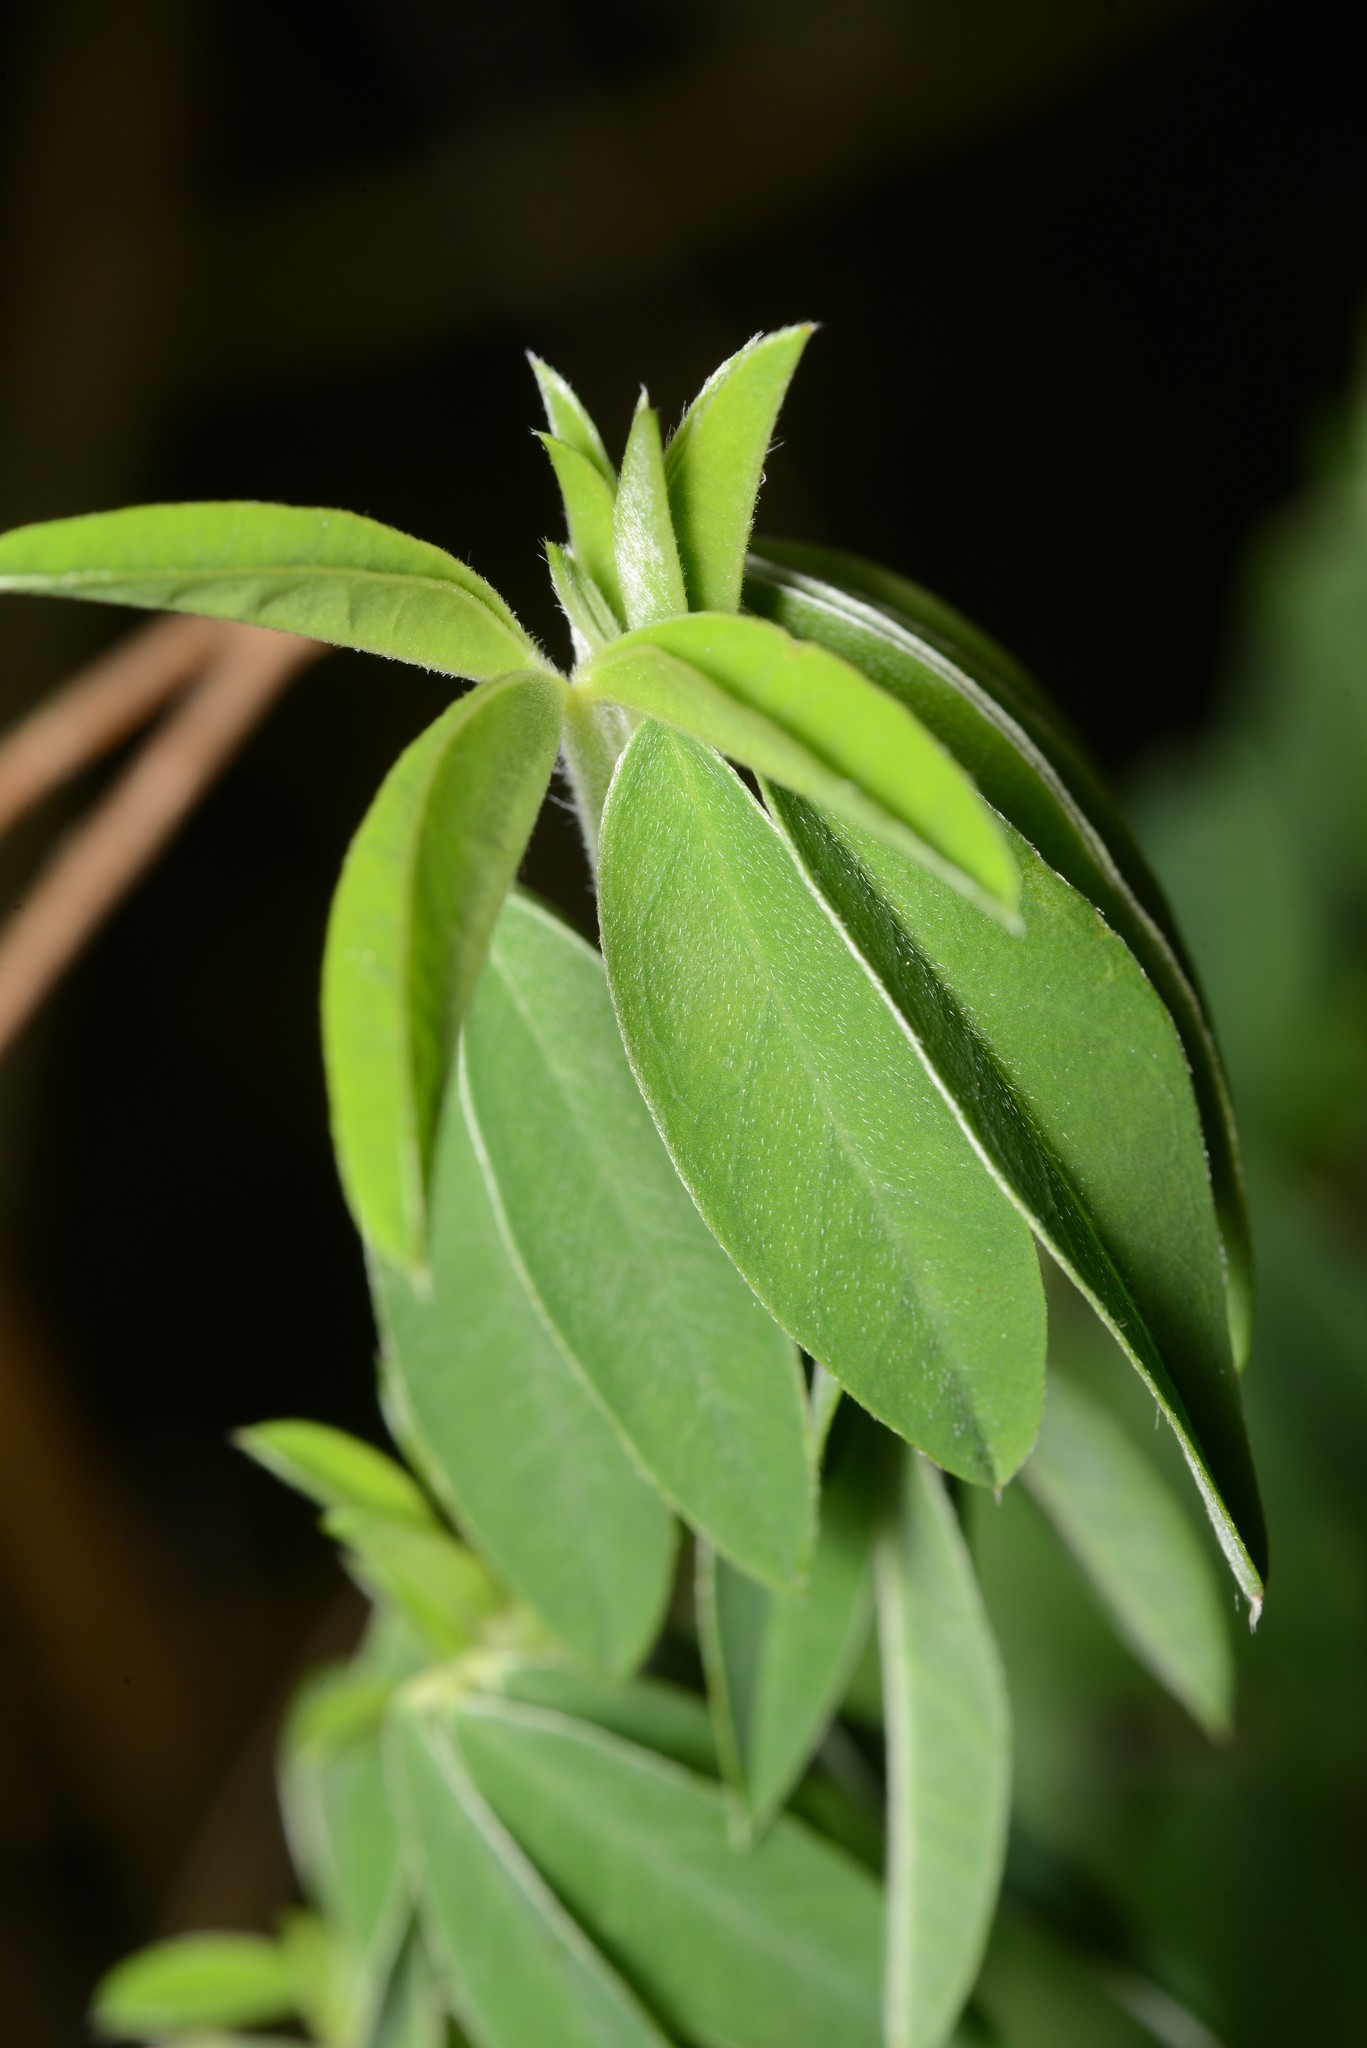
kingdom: Plantae
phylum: Tracheophyta
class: Magnoliopsida
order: Fabales
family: Fabaceae
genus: Chamaecytisus
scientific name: Chamaecytisus prolifer
